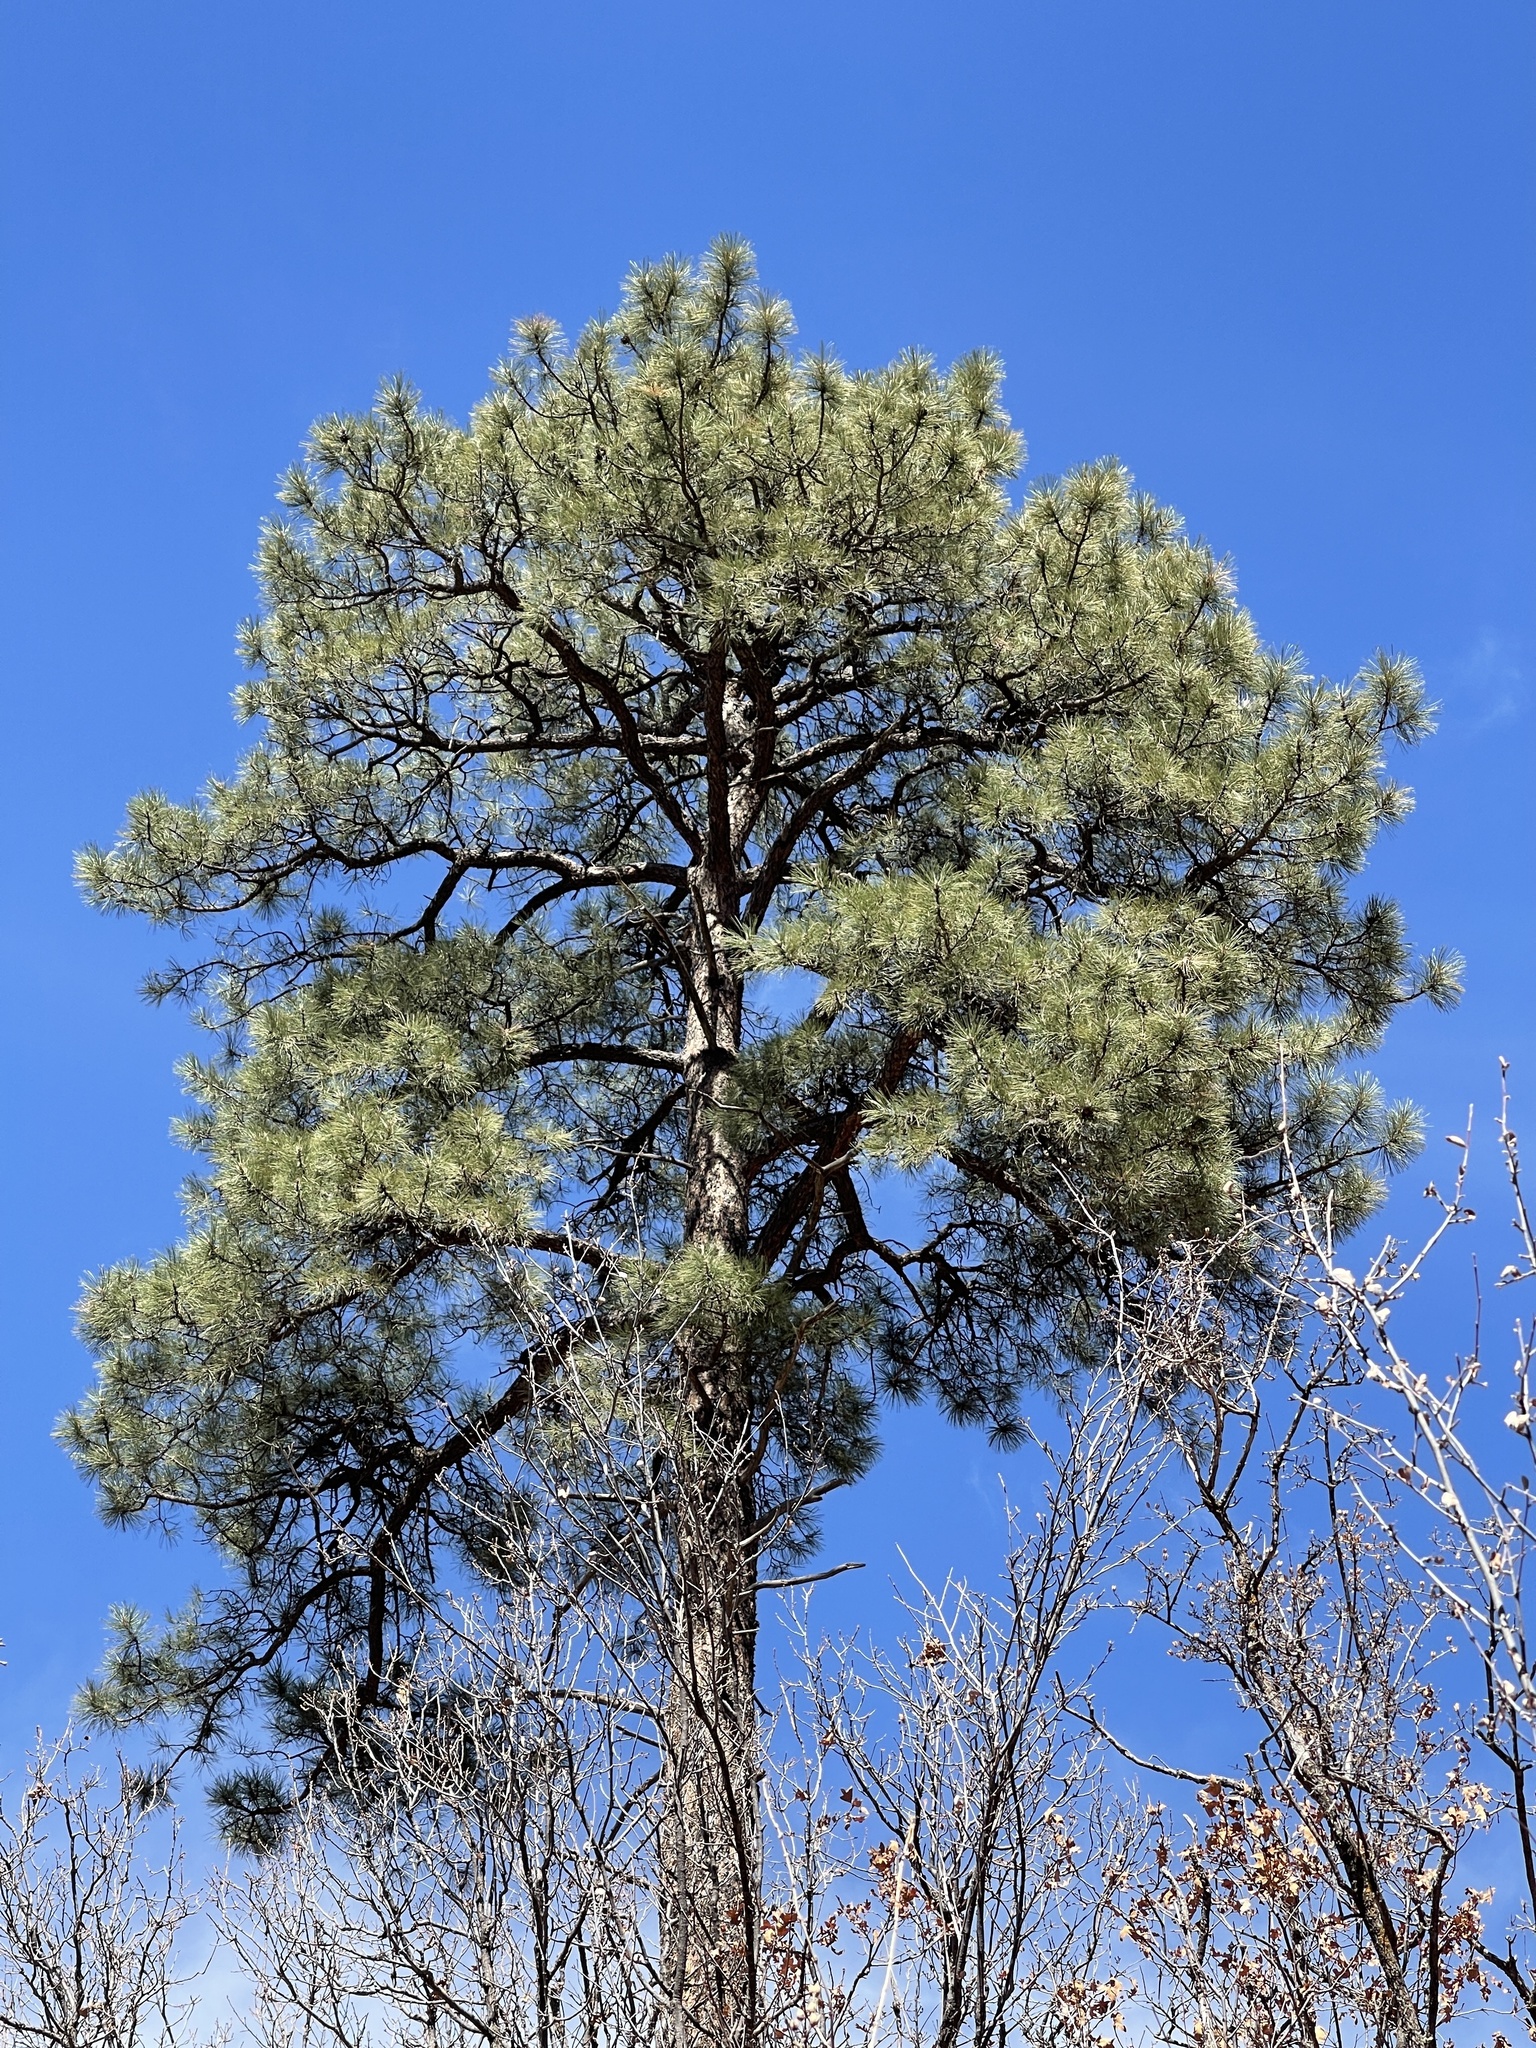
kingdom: Plantae
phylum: Tracheophyta
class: Pinopsida
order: Pinales
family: Pinaceae
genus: Pinus
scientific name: Pinus ponderosa
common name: Western yellow-pine
